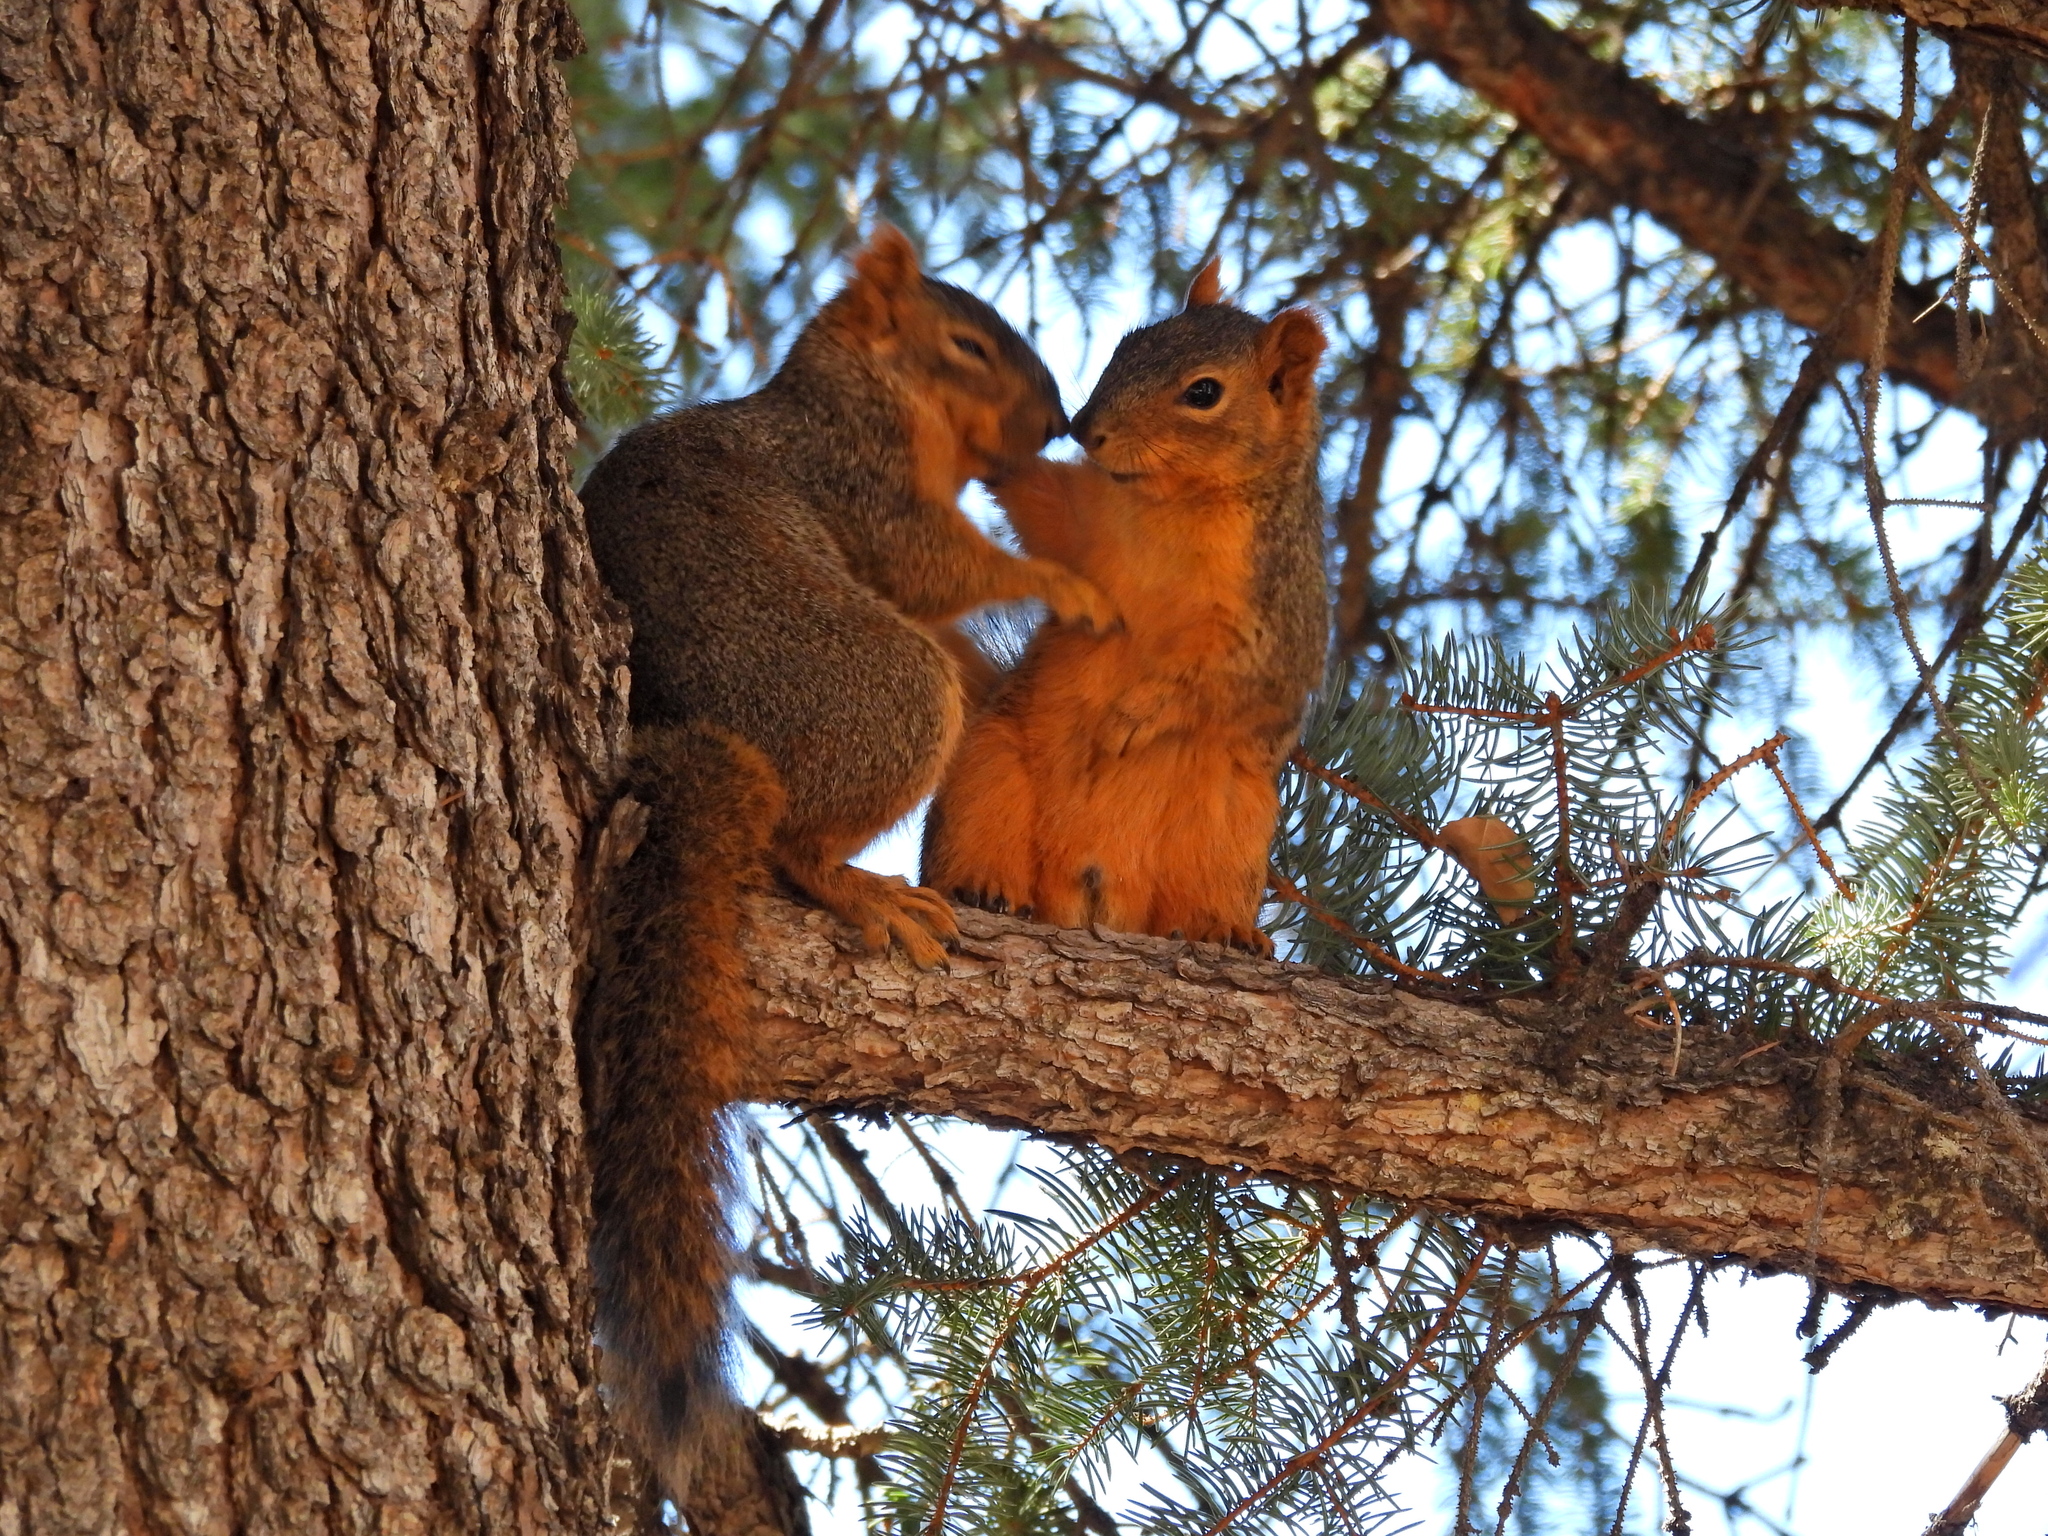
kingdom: Animalia
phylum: Chordata
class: Mammalia
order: Rodentia
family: Sciuridae
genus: Sciurus
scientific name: Sciurus niger
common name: Fox squirrel
